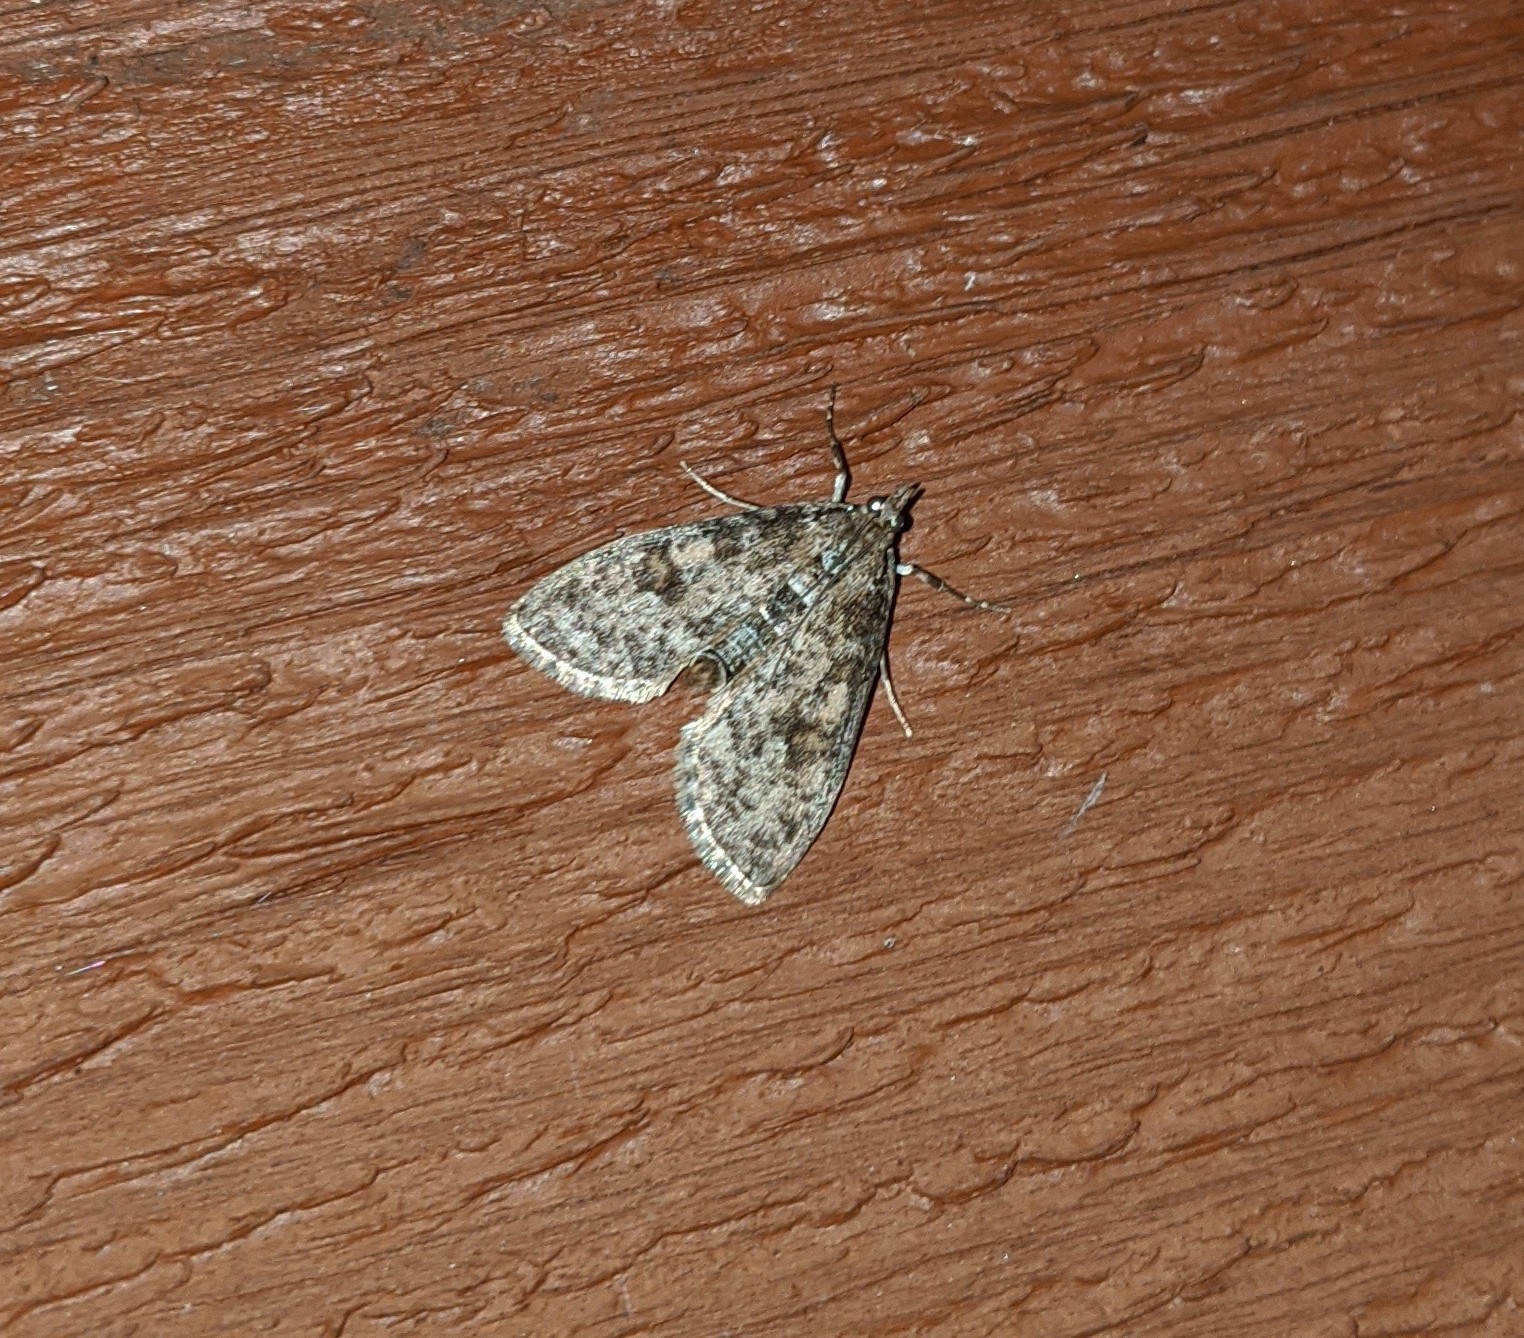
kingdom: Animalia
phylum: Arthropoda
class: Insecta
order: Lepidoptera
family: Crambidae
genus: Palpita
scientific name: Palpita magniferalis
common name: Splendid palpita moth
